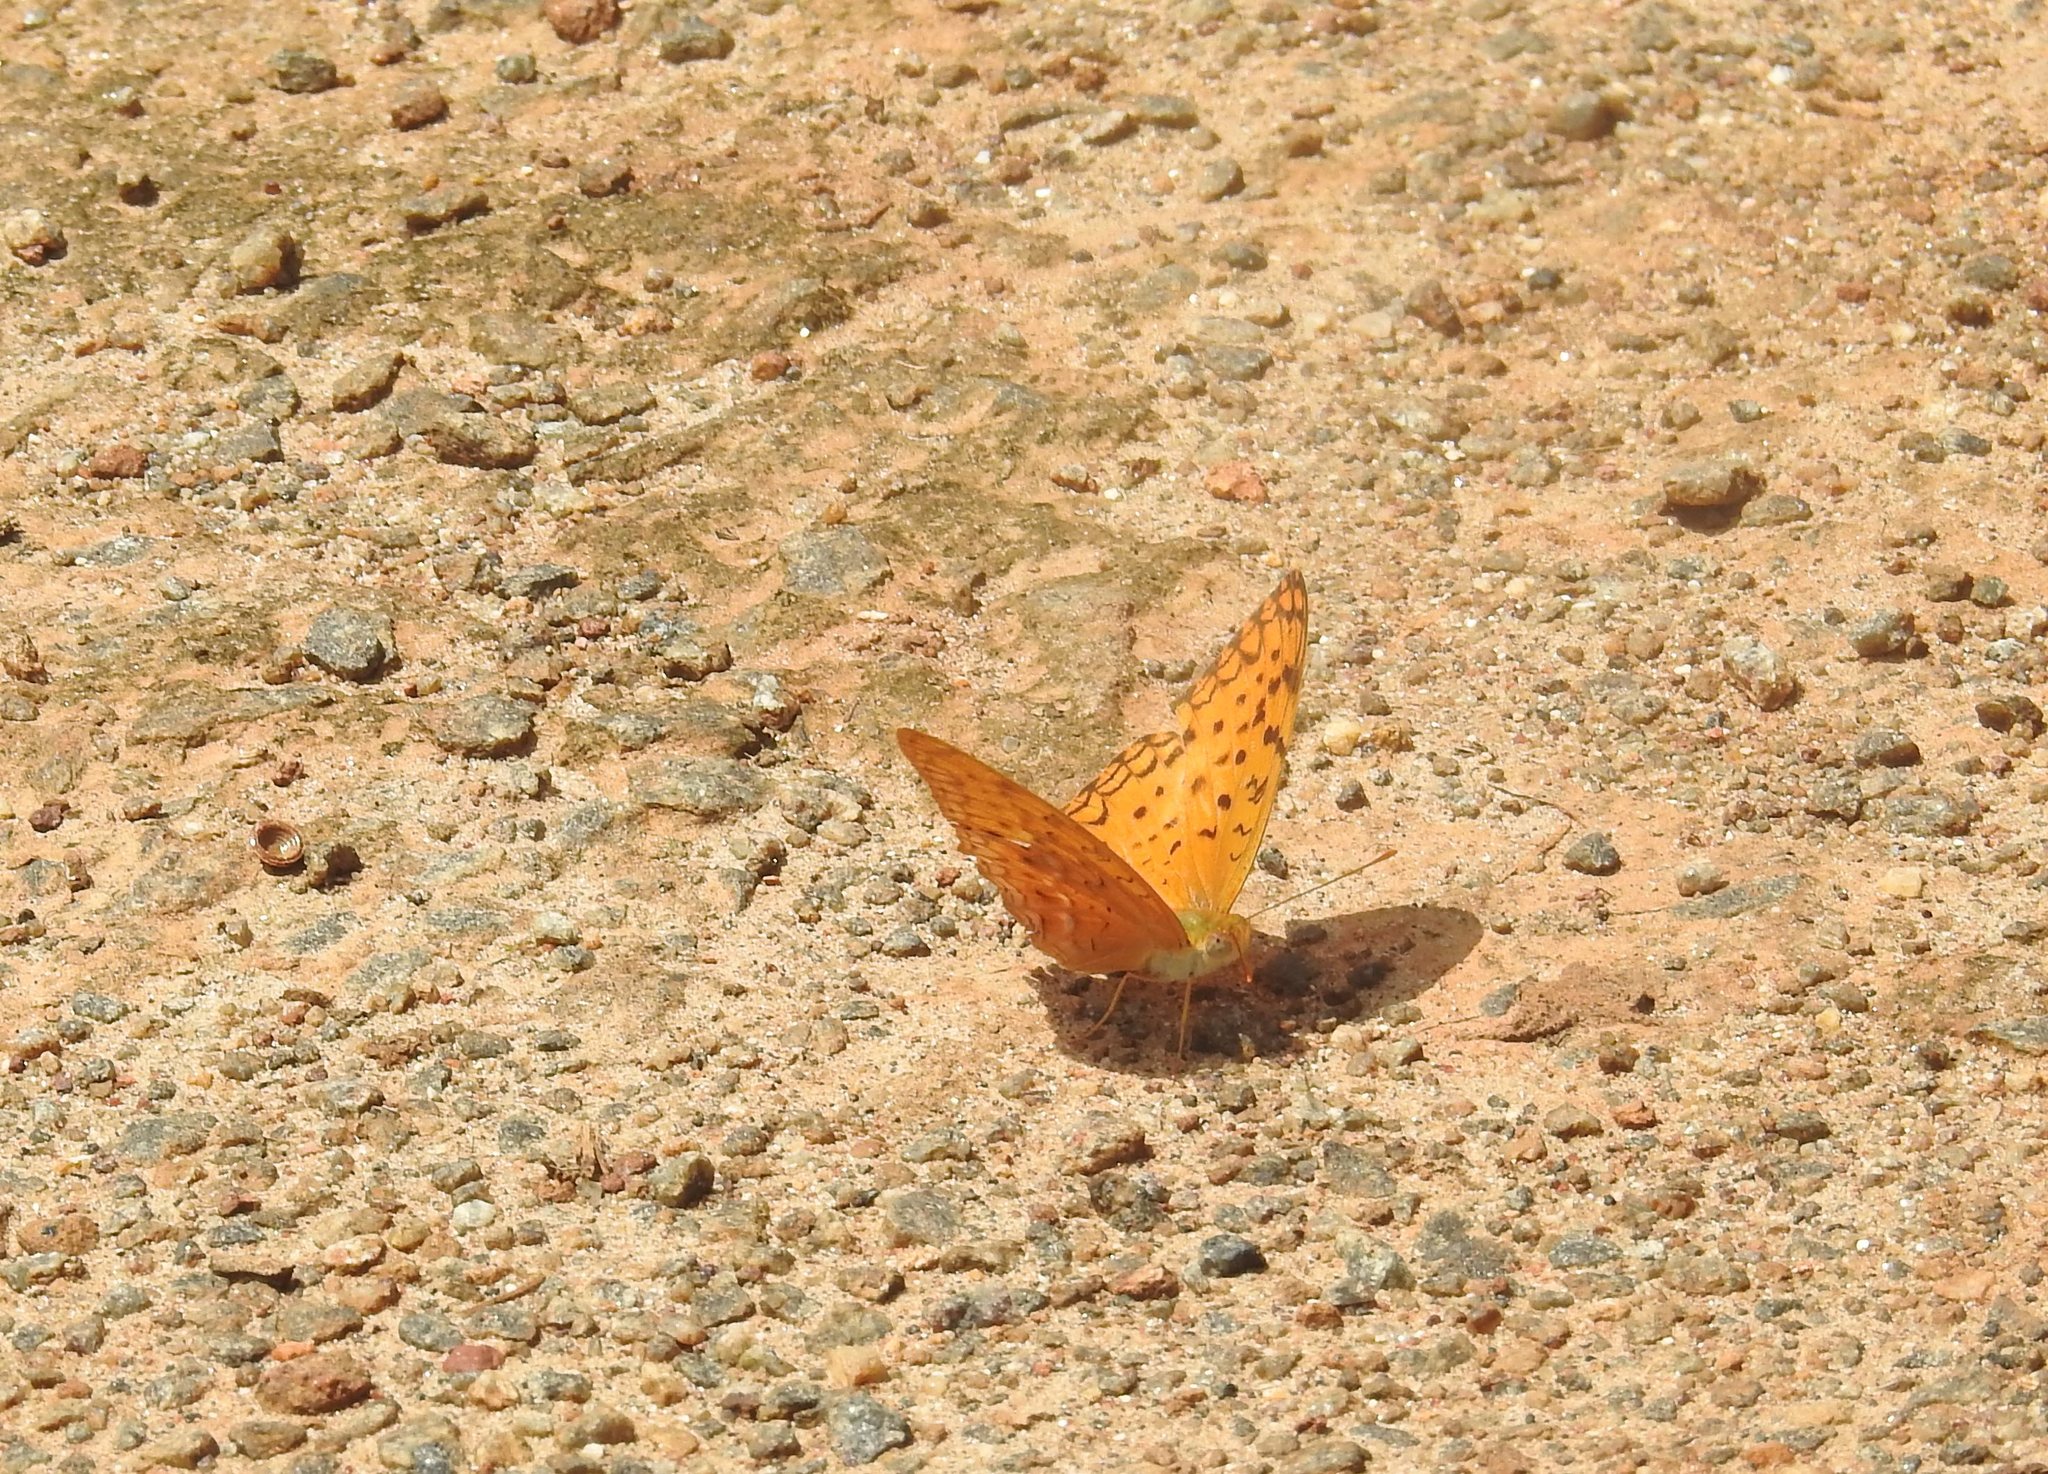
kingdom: Animalia
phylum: Arthropoda
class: Insecta
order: Lepidoptera
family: Nymphalidae
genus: Phalanta
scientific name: Phalanta phalantha
